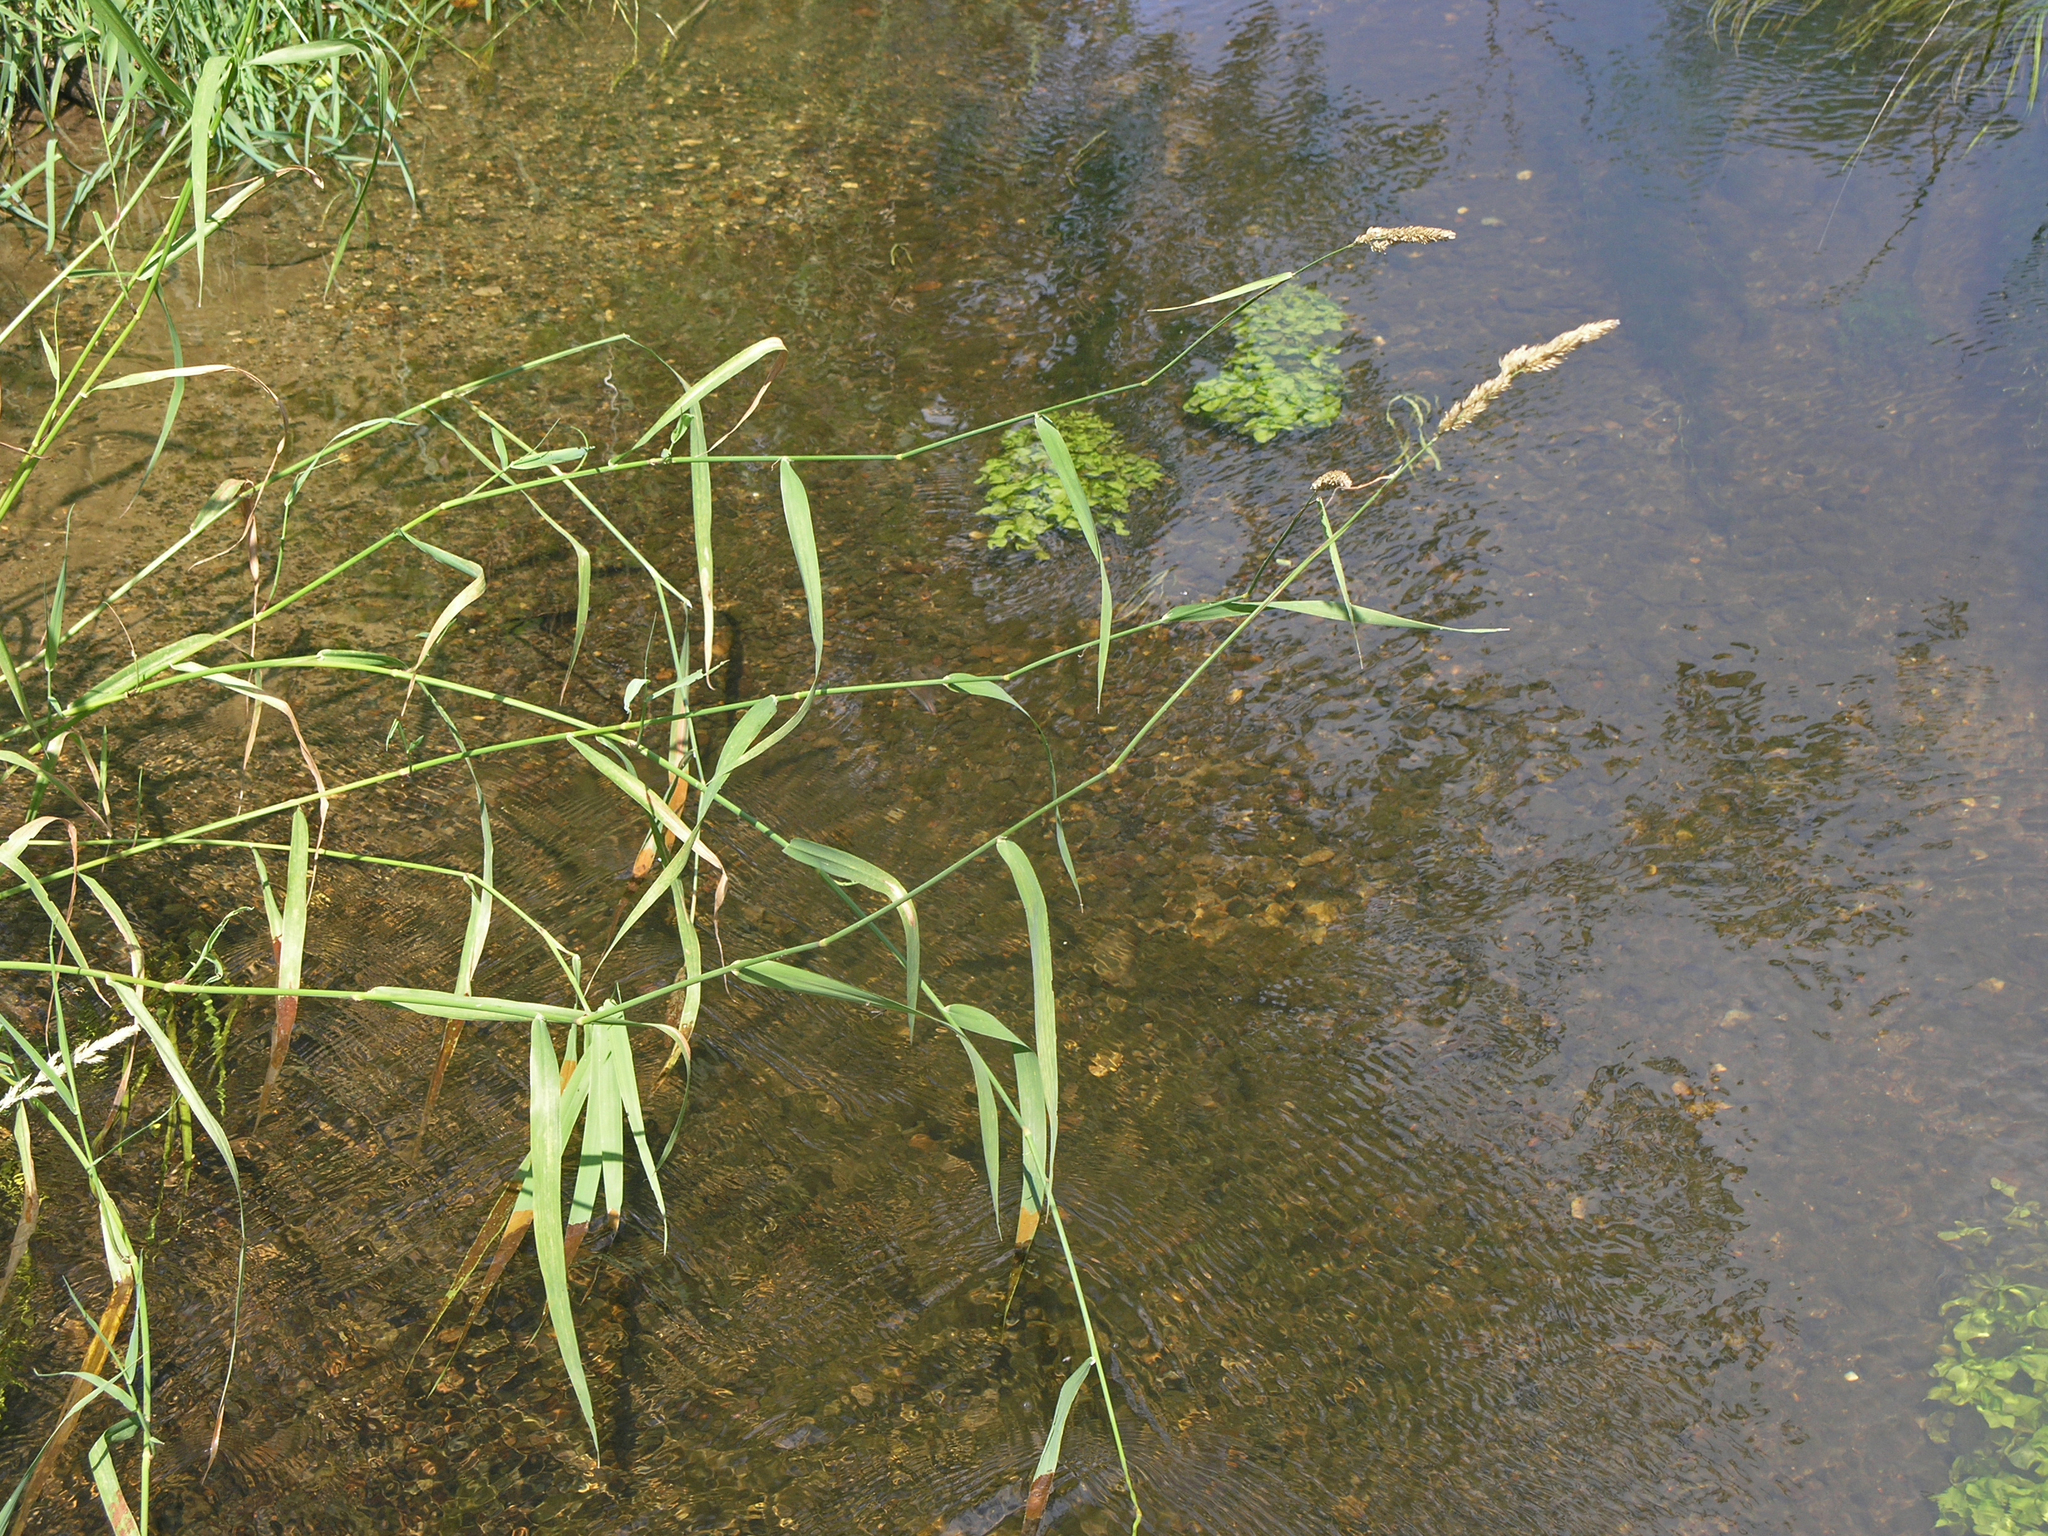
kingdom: Plantae
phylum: Tracheophyta
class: Liliopsida
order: Poales
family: Poaceae
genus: Phalaris
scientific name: Phalaris arundinacea
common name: Reed canary-grass
